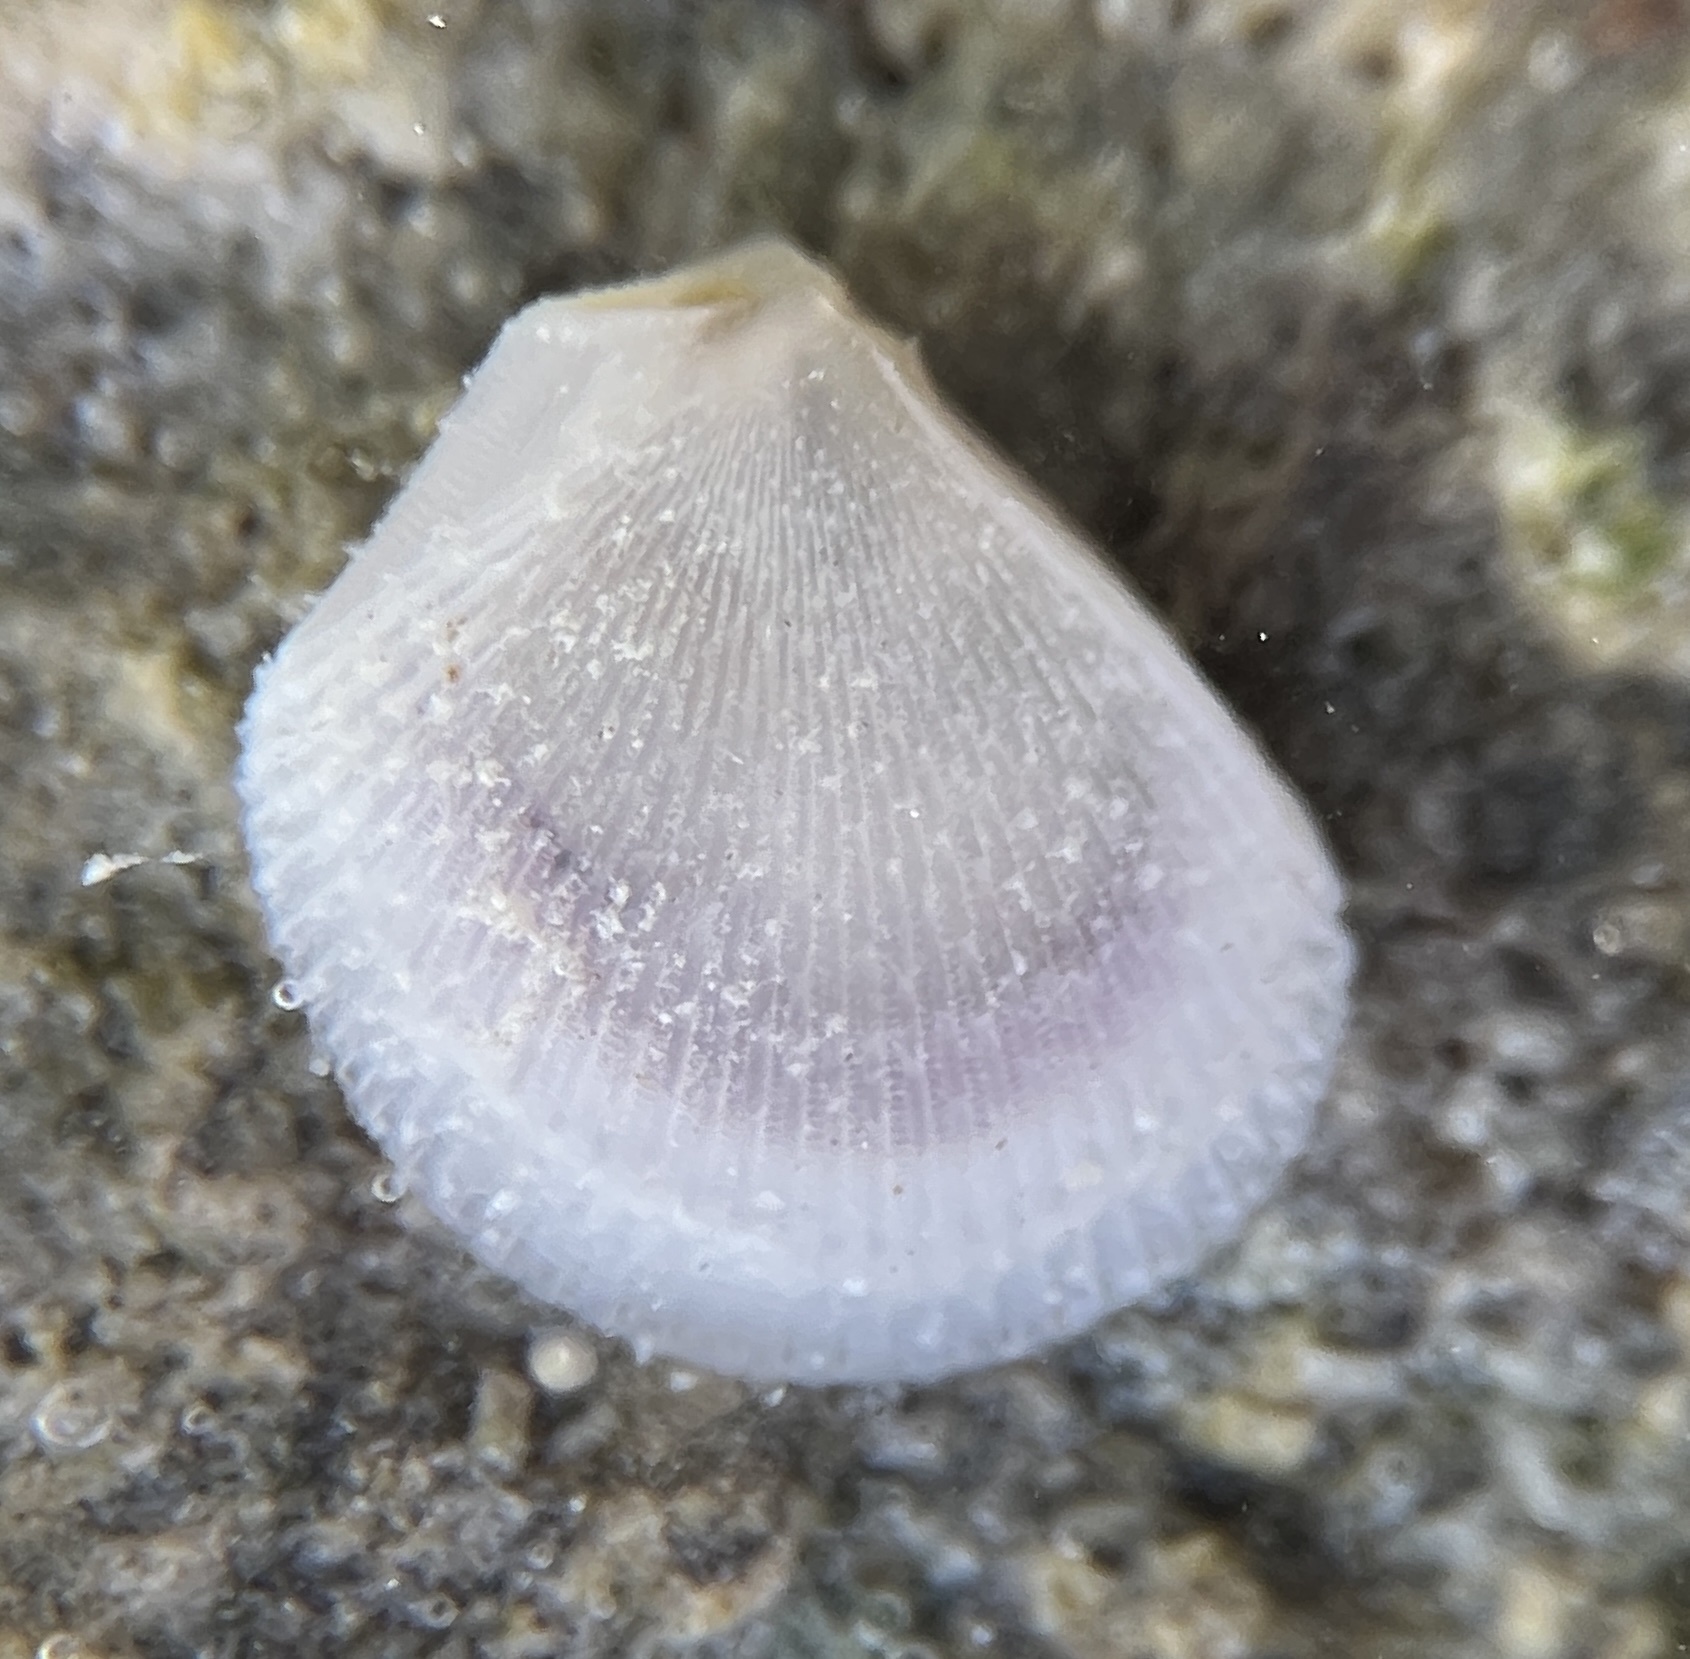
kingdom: Animalia
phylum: Mollusca
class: Bivalvia
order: Limida
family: Limidae
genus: Limaria
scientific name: Limaria pellucida
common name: Antillean fileclam
